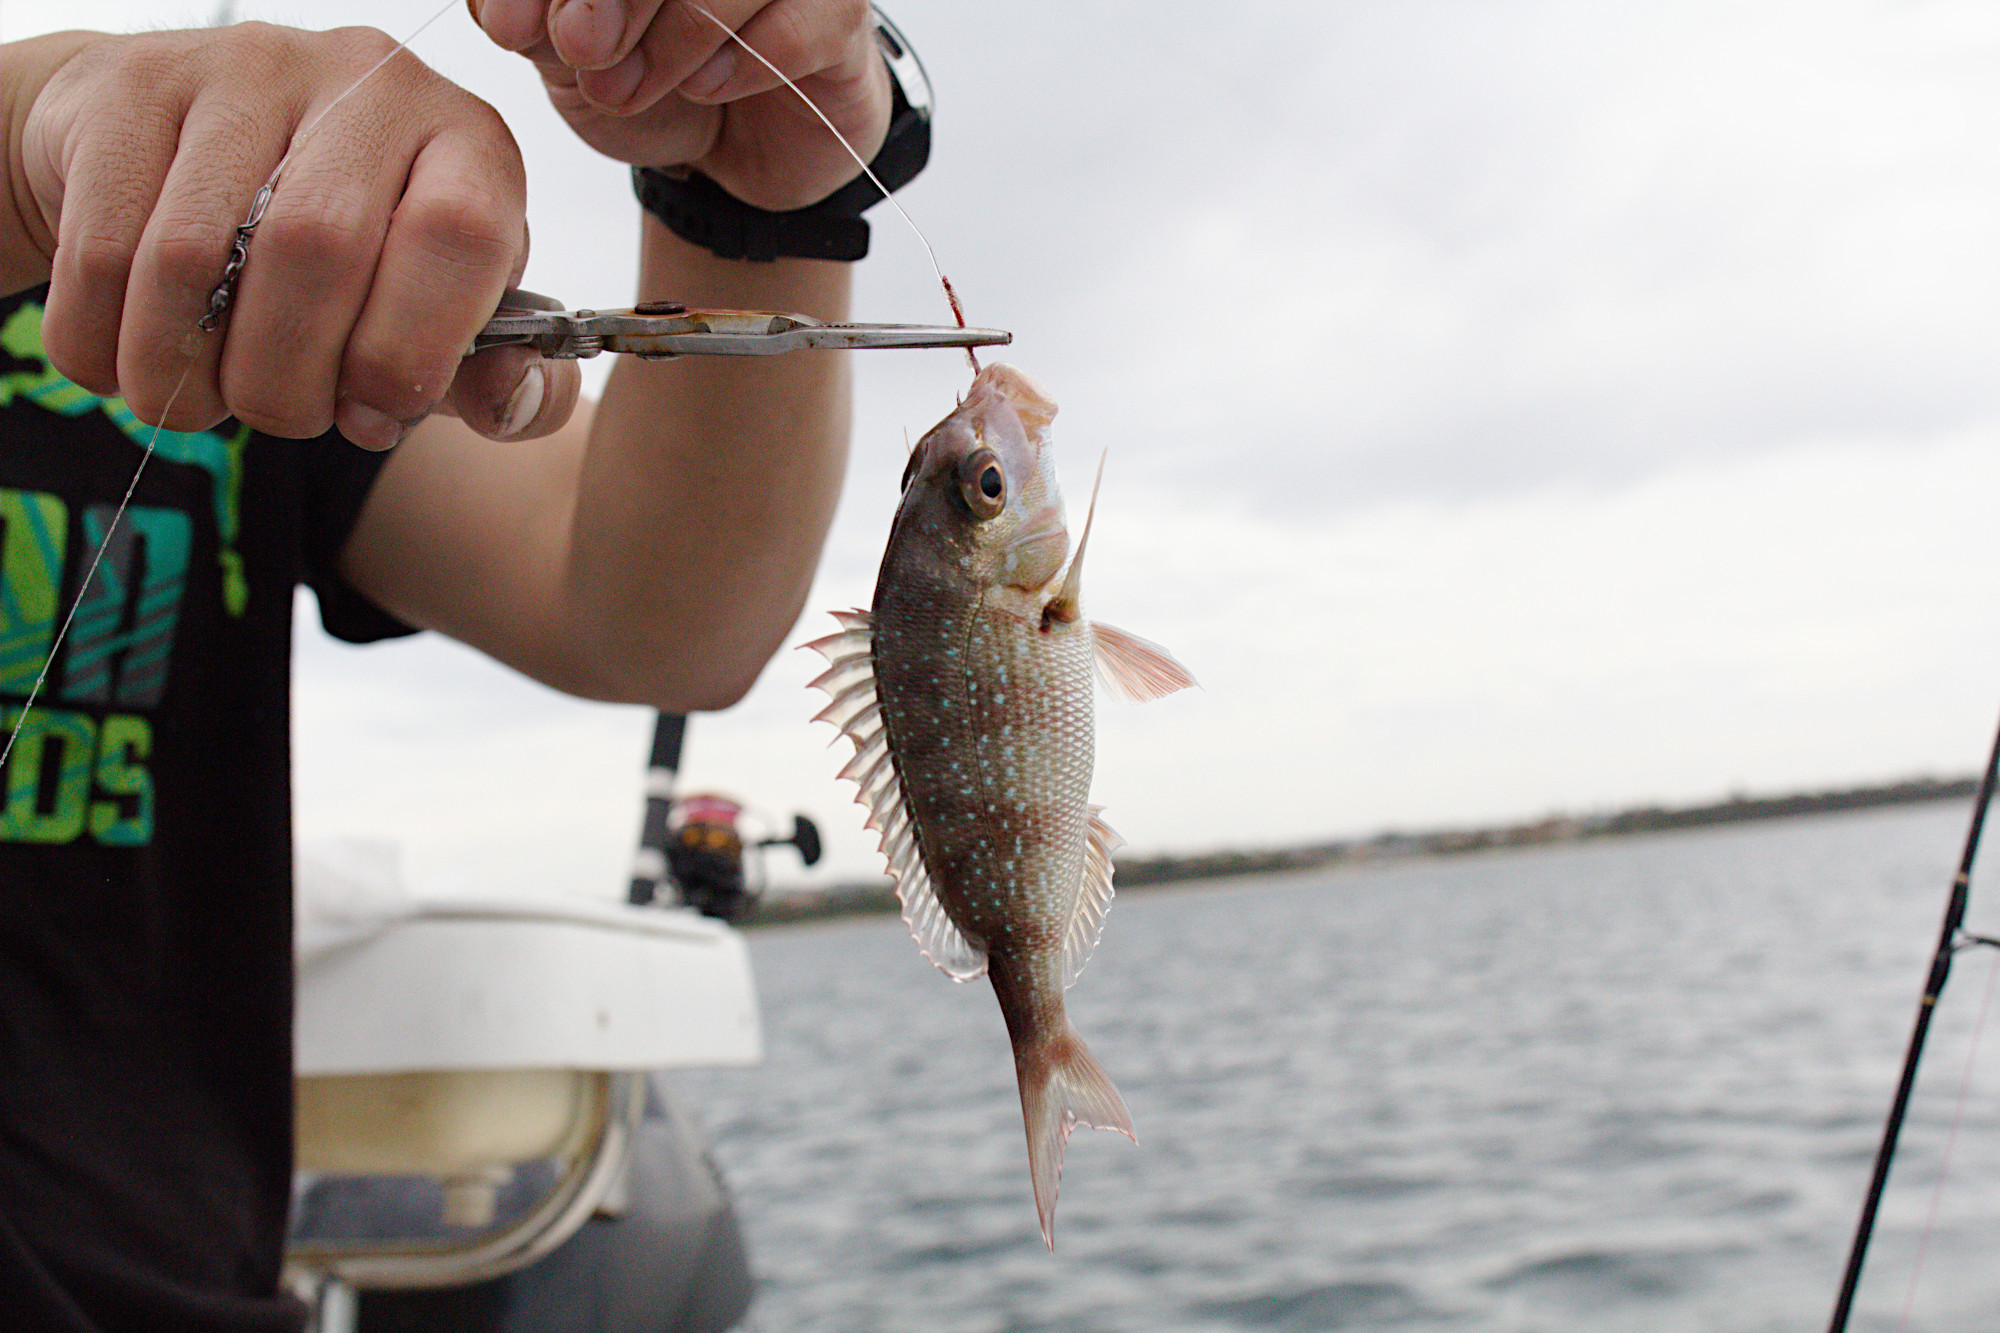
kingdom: Animalia
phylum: Chordata
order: Perciformes
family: Sparidae
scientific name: Sparidae
